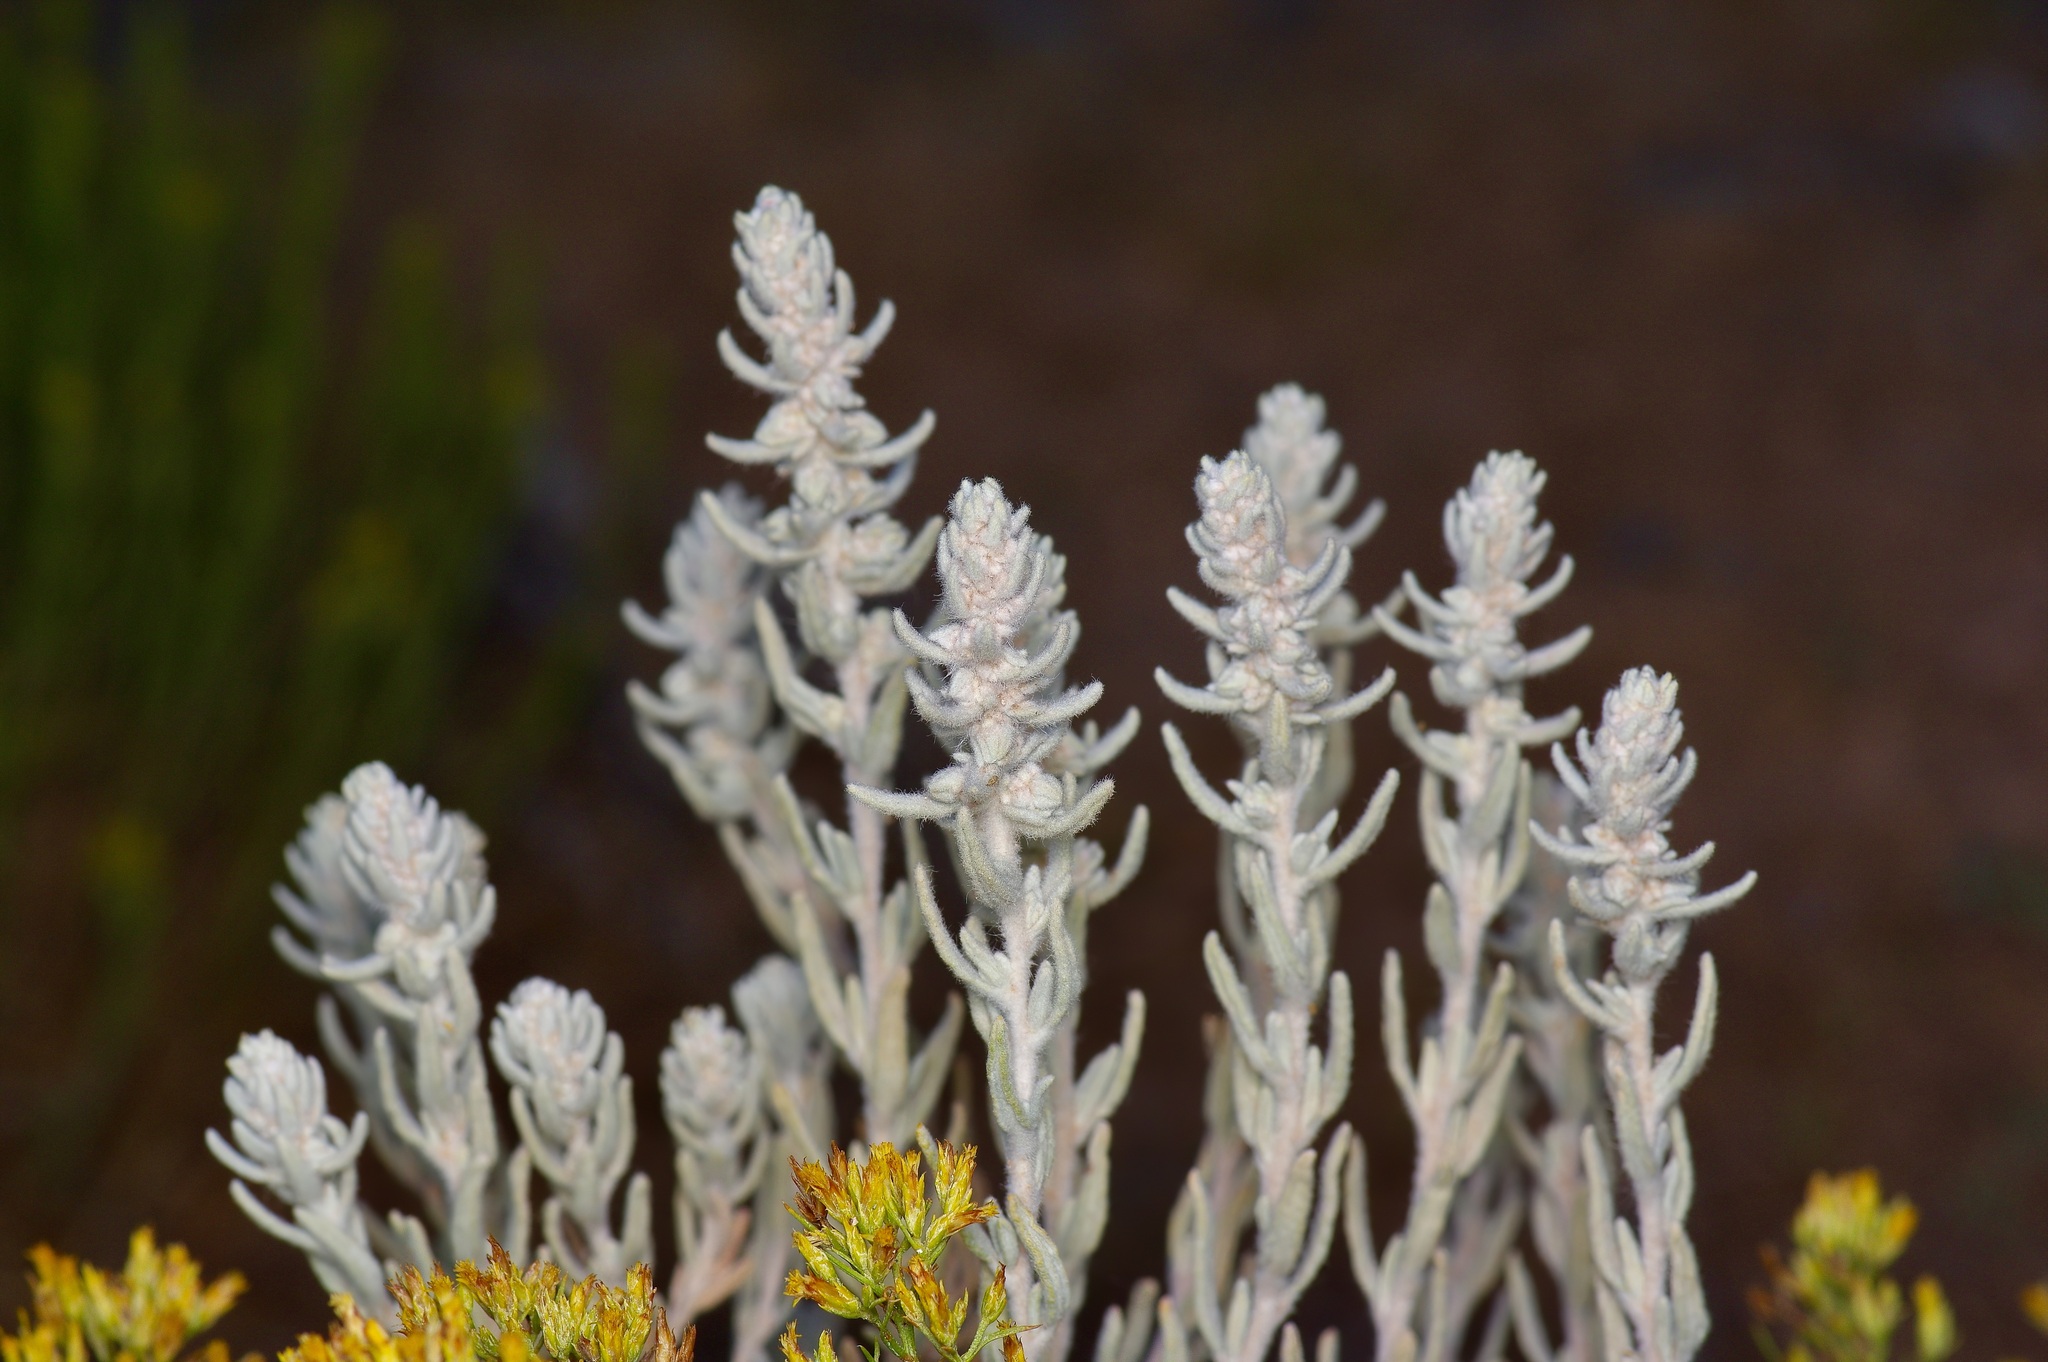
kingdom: Plantae
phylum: Tracheophyta
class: Magnoliopsida
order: Caryophyllales
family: Amaranthaceae
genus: Krascheninnikovia
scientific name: Krascheninnikovia lanata
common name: Winterfat
